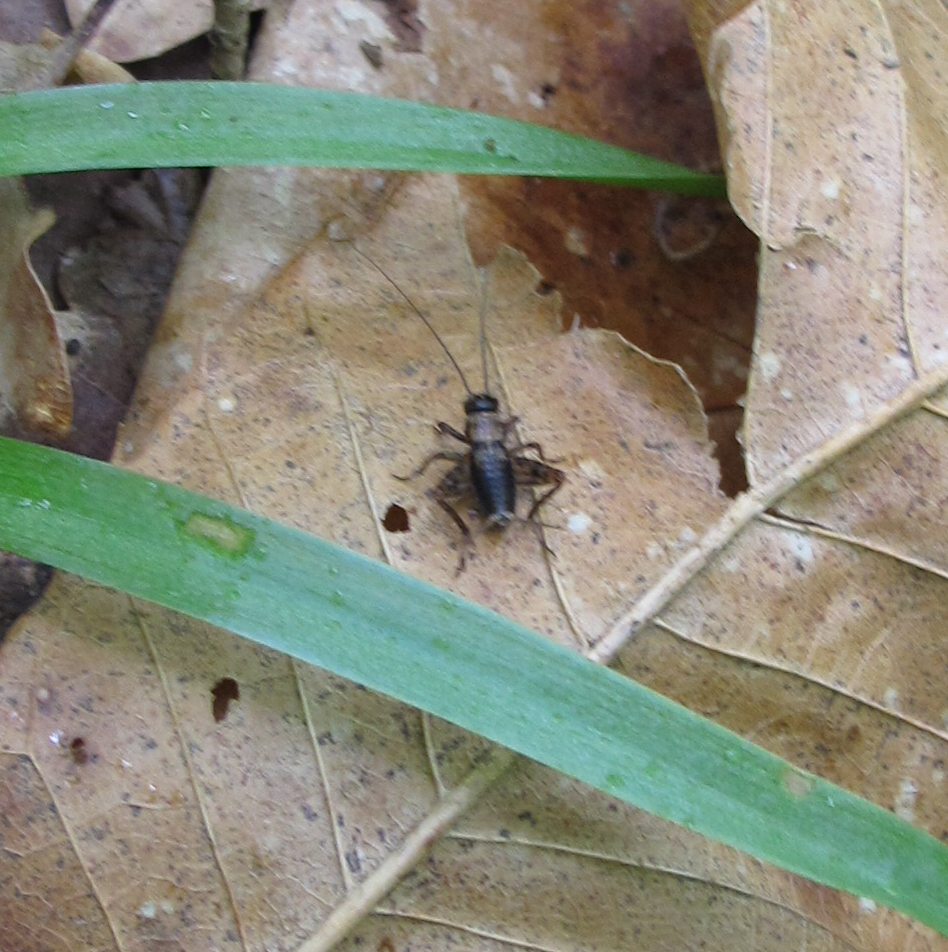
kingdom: Animalia
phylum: Arthropoda
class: Insecta
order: Orthoptera
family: Trigonidiidae
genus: Nemobius
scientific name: Nemobius sylvestris
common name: Wood-cricket
